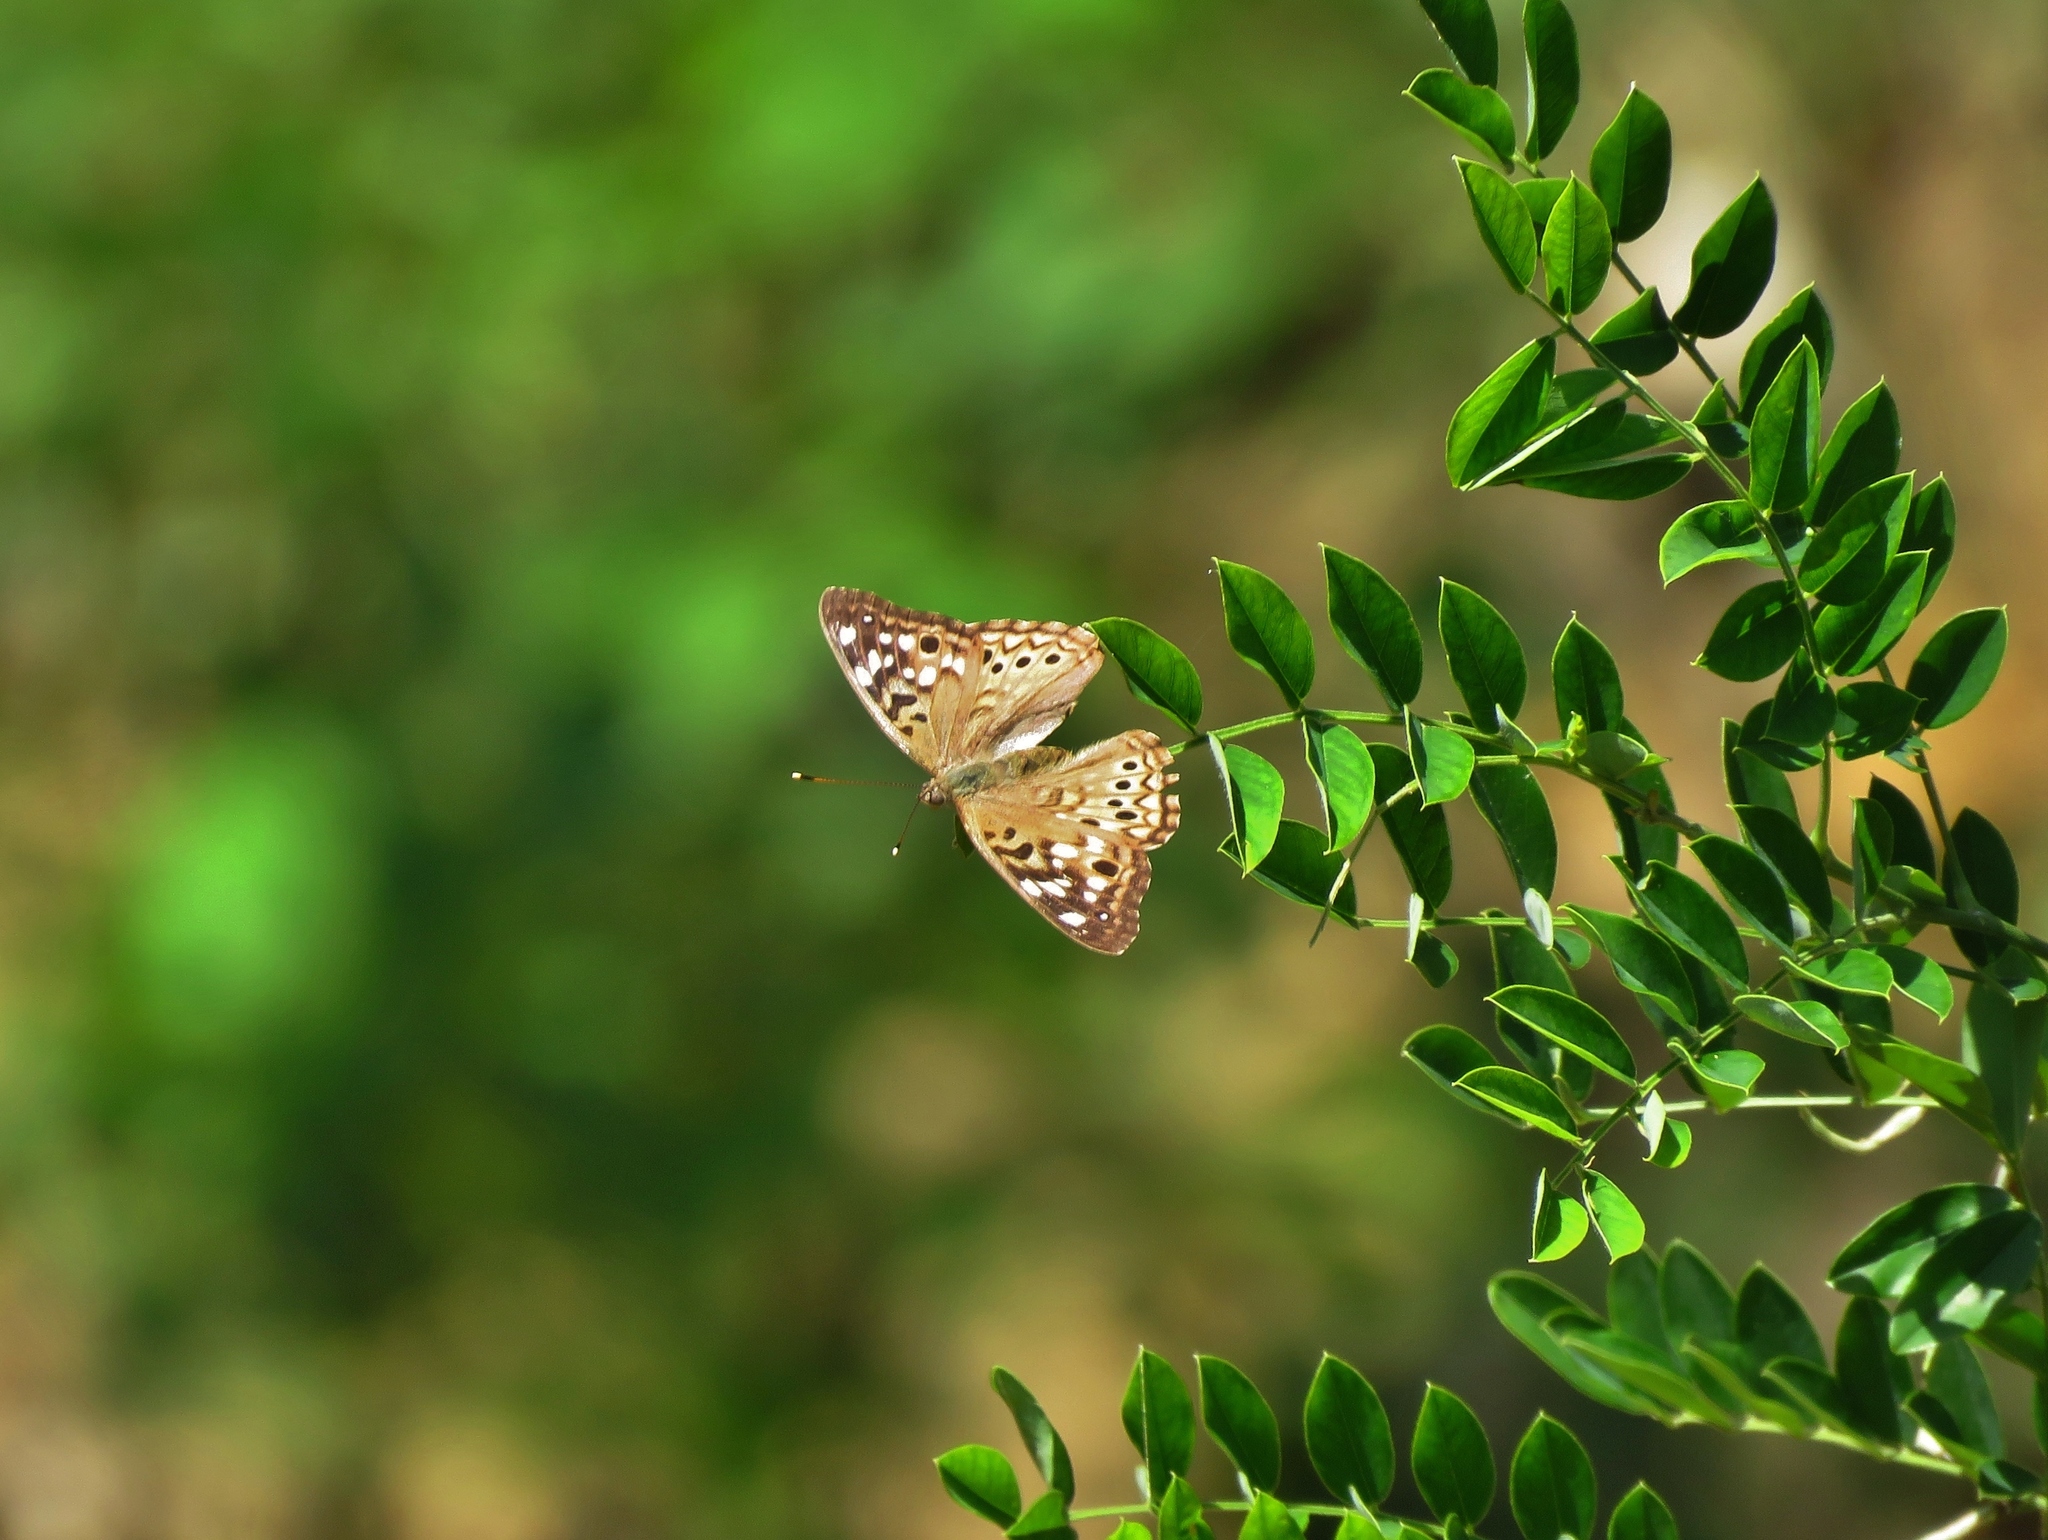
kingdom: Animalia
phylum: Arthropoda
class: Insecta
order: Lepidoptera
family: Nymphalidae
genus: Asterocampa
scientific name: Asterocampa celtis
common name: Hackberry emperor
